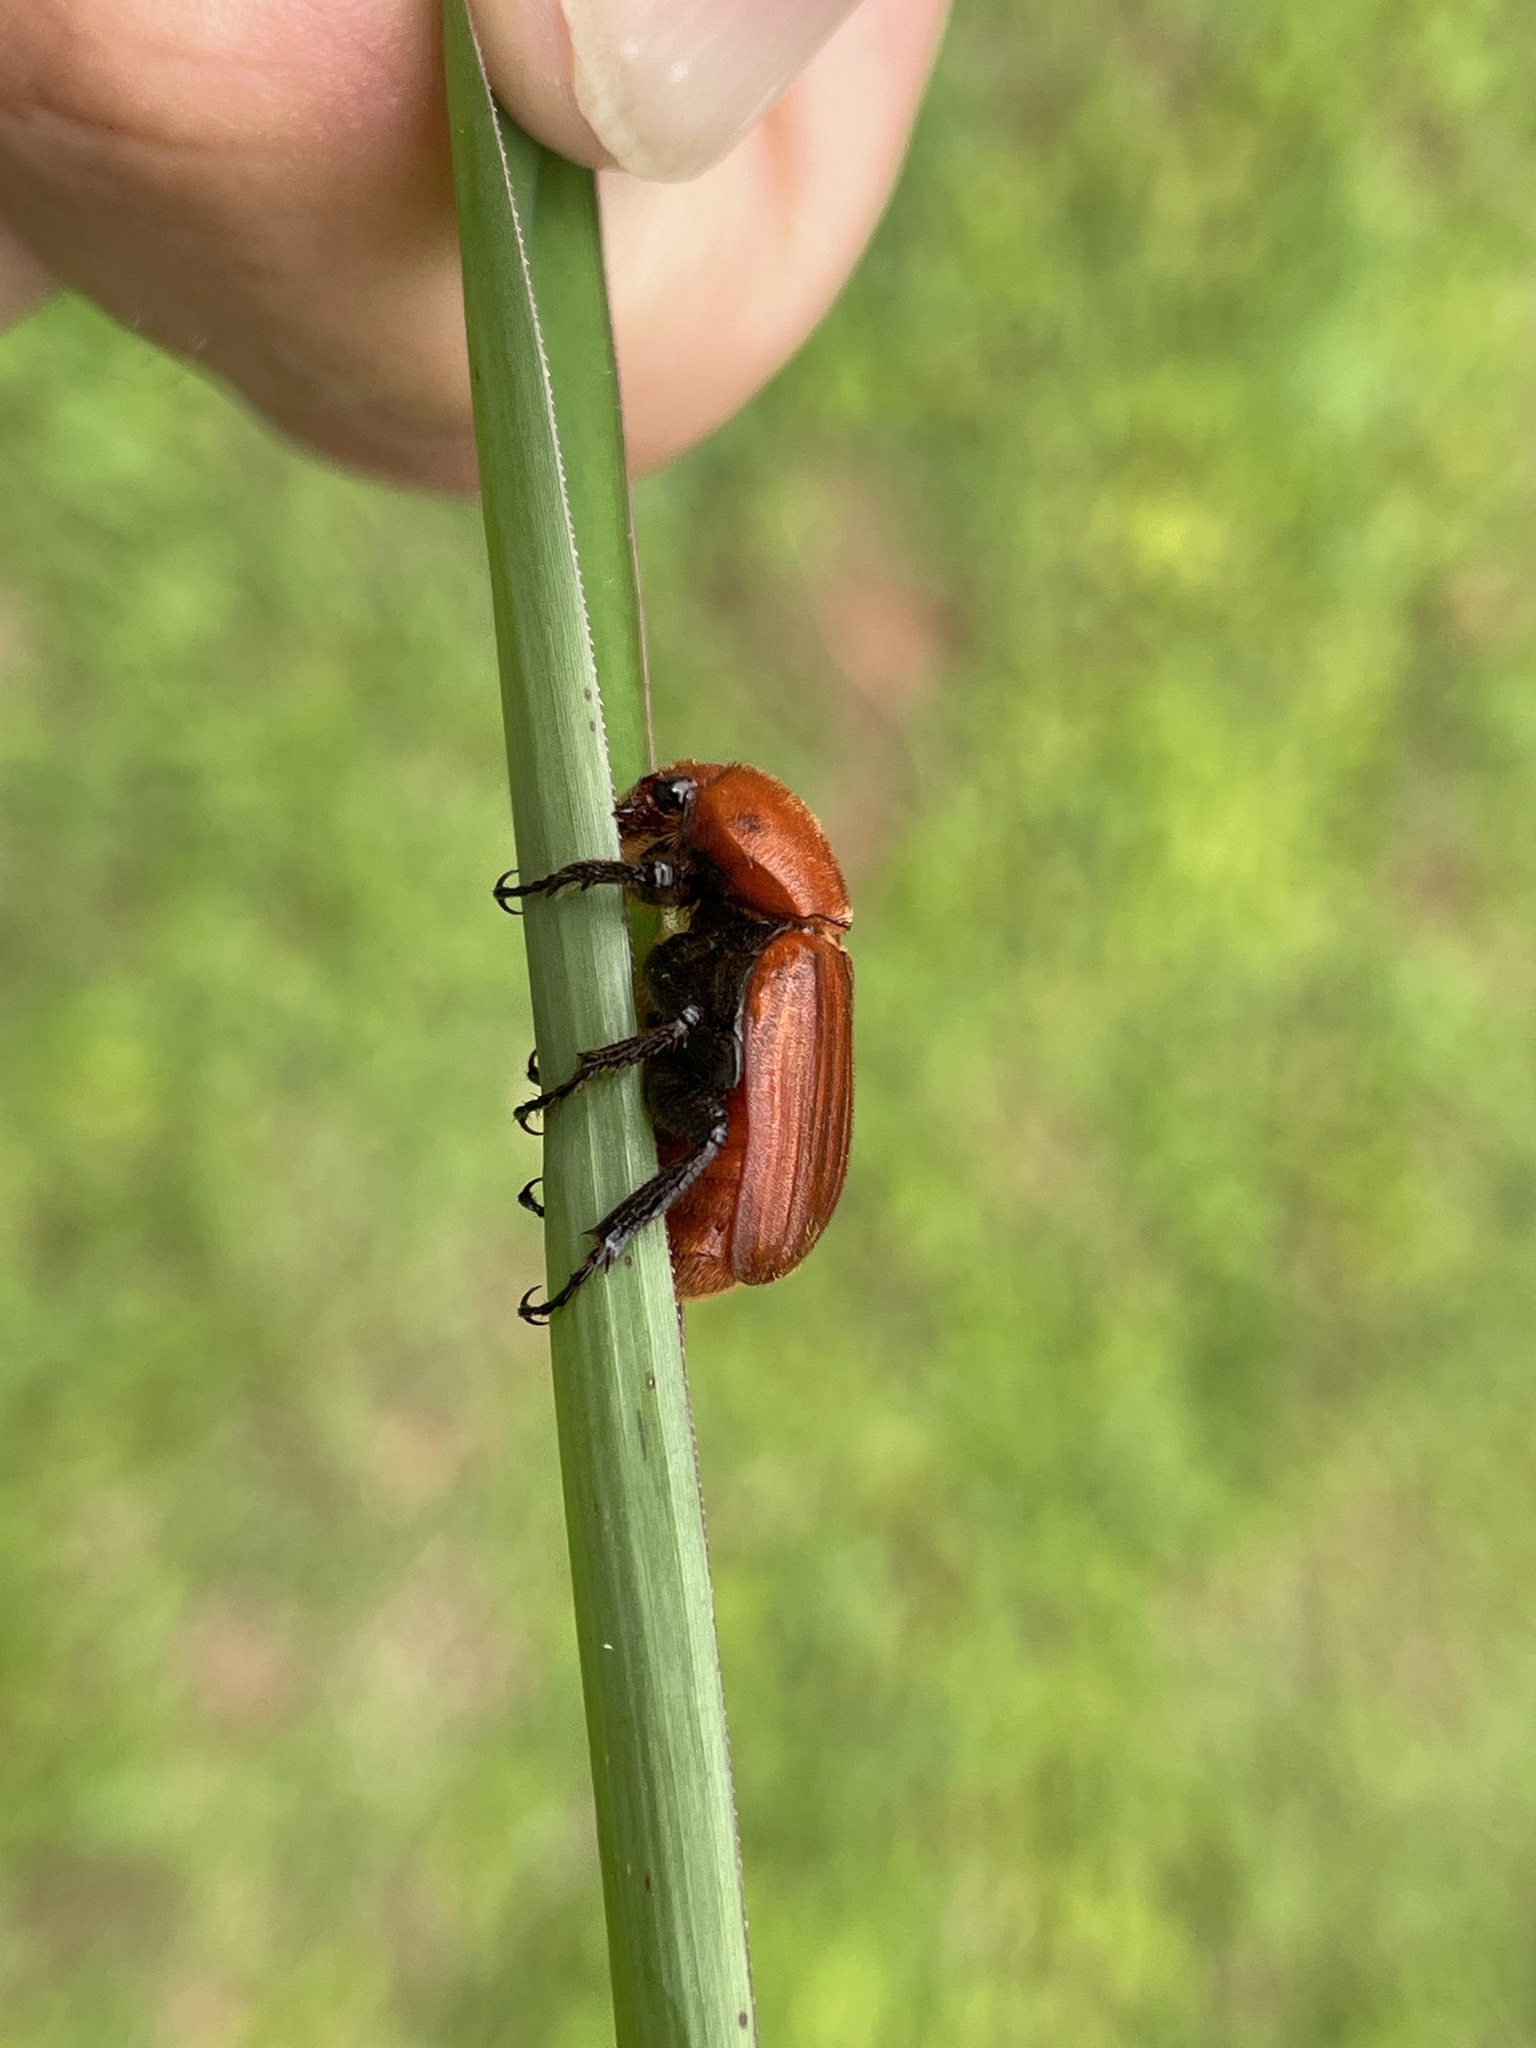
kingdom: Animalia
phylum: Arthropoda
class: Insecta
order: Coleoptera
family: Scarabaeidae
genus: Myodermum
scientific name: Myodermum rufum
